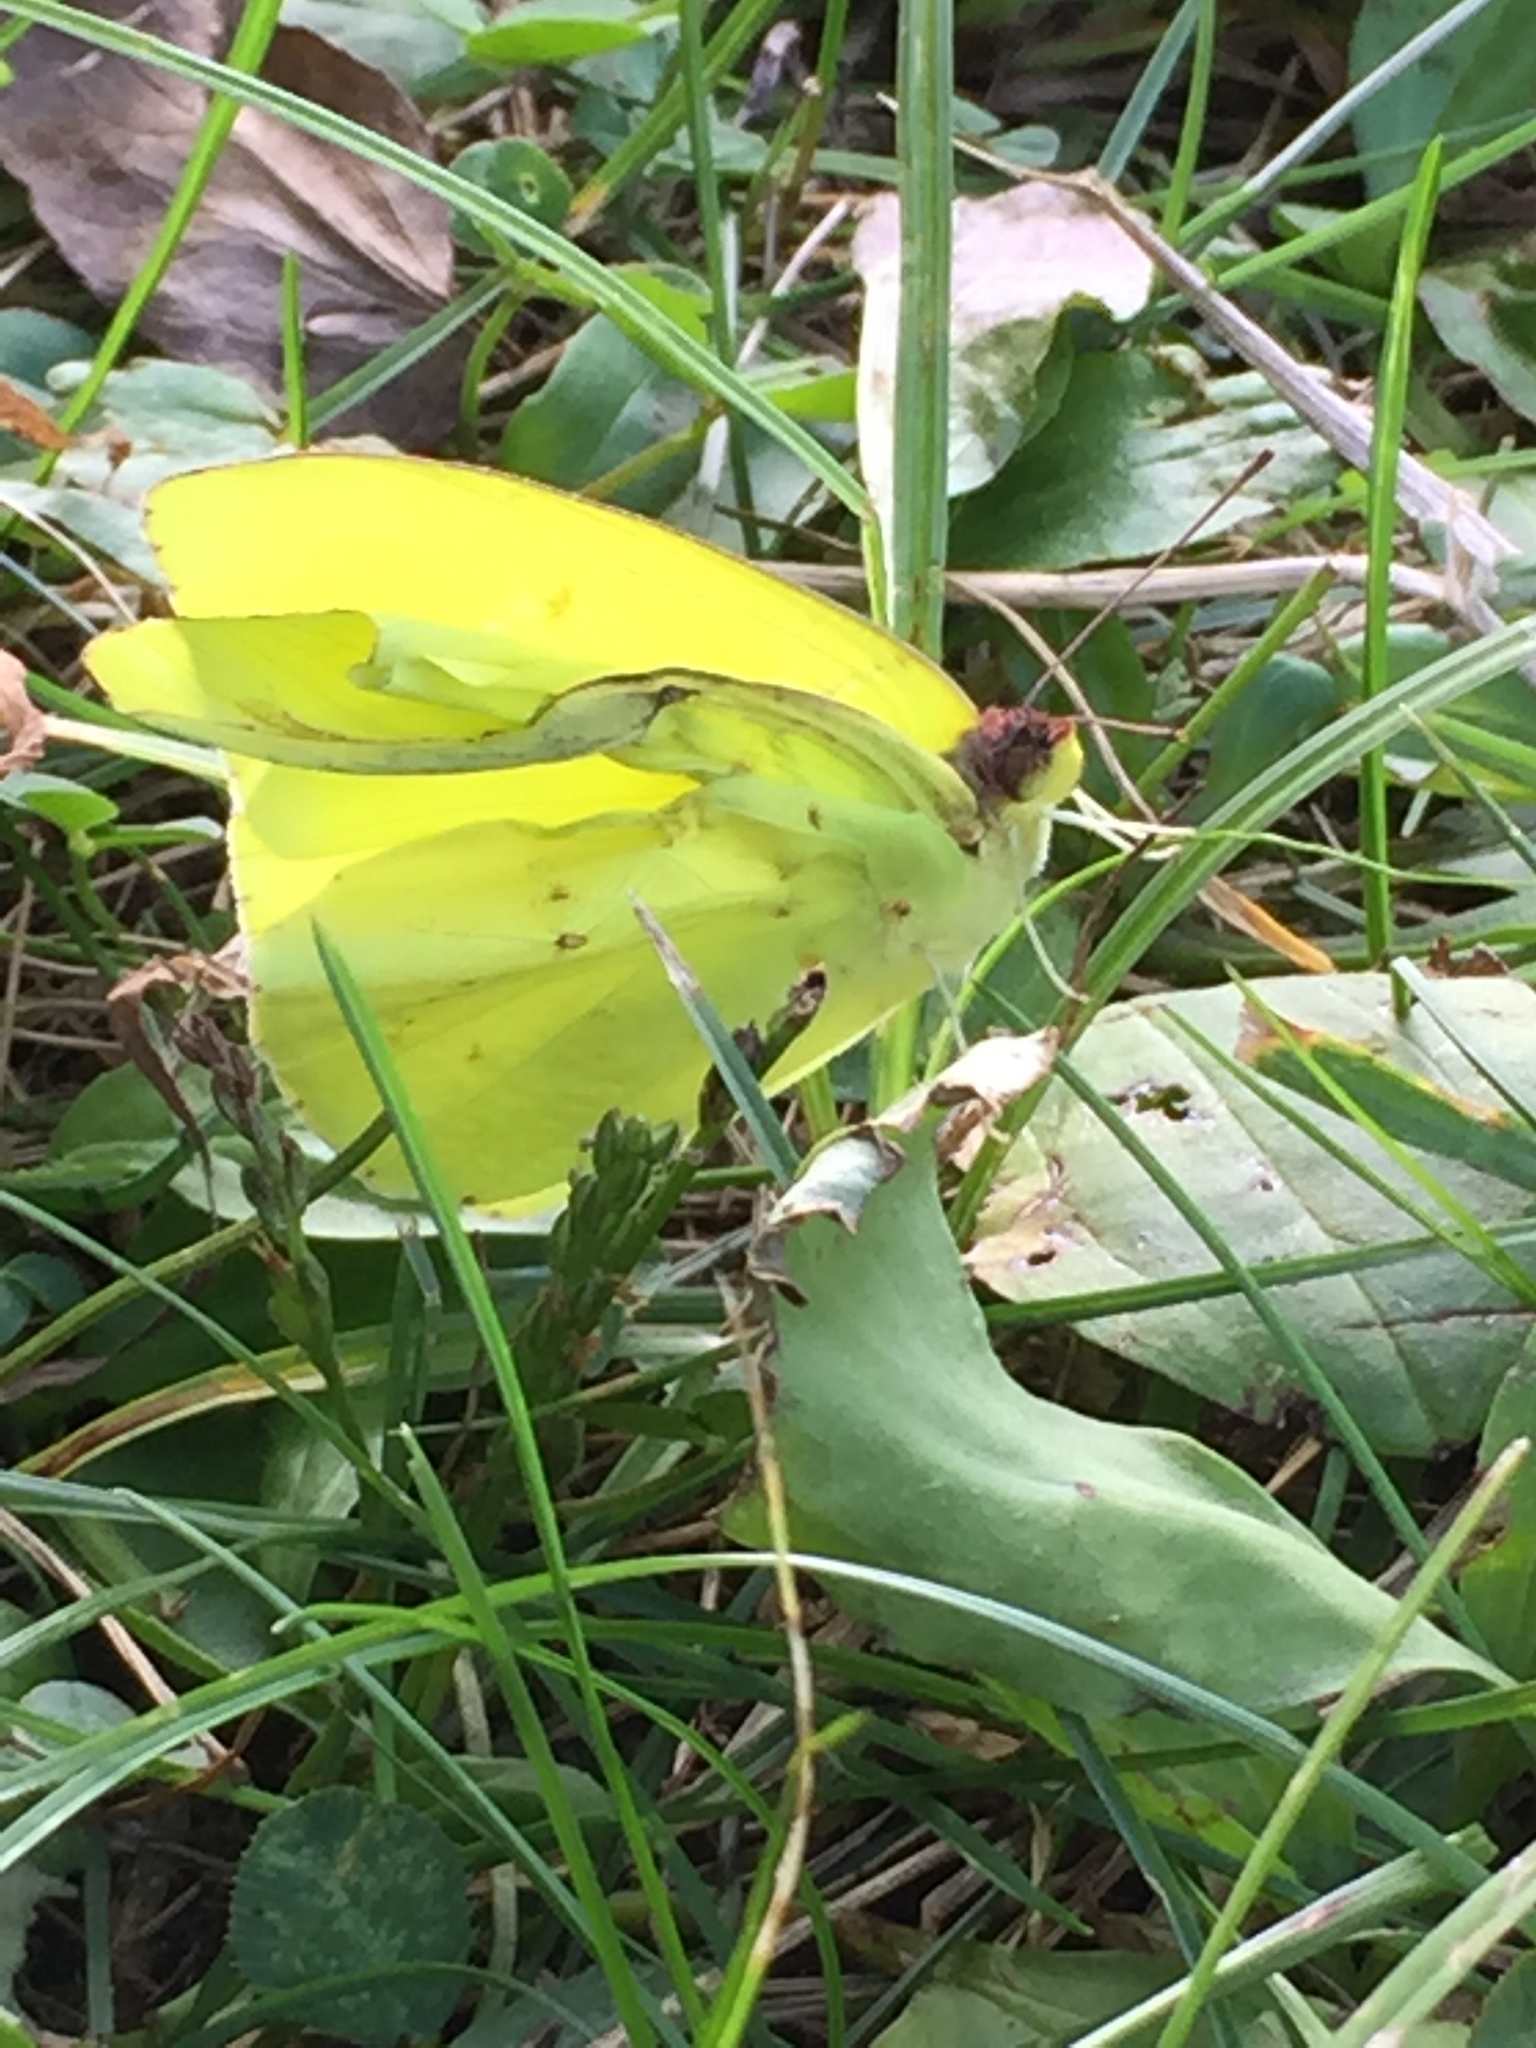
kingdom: Animalia
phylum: Arthropoda
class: Insecta
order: Lepidoptera
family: Pieridae
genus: Phoebis
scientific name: Phoebis sennae
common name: Cloudless sulphur
